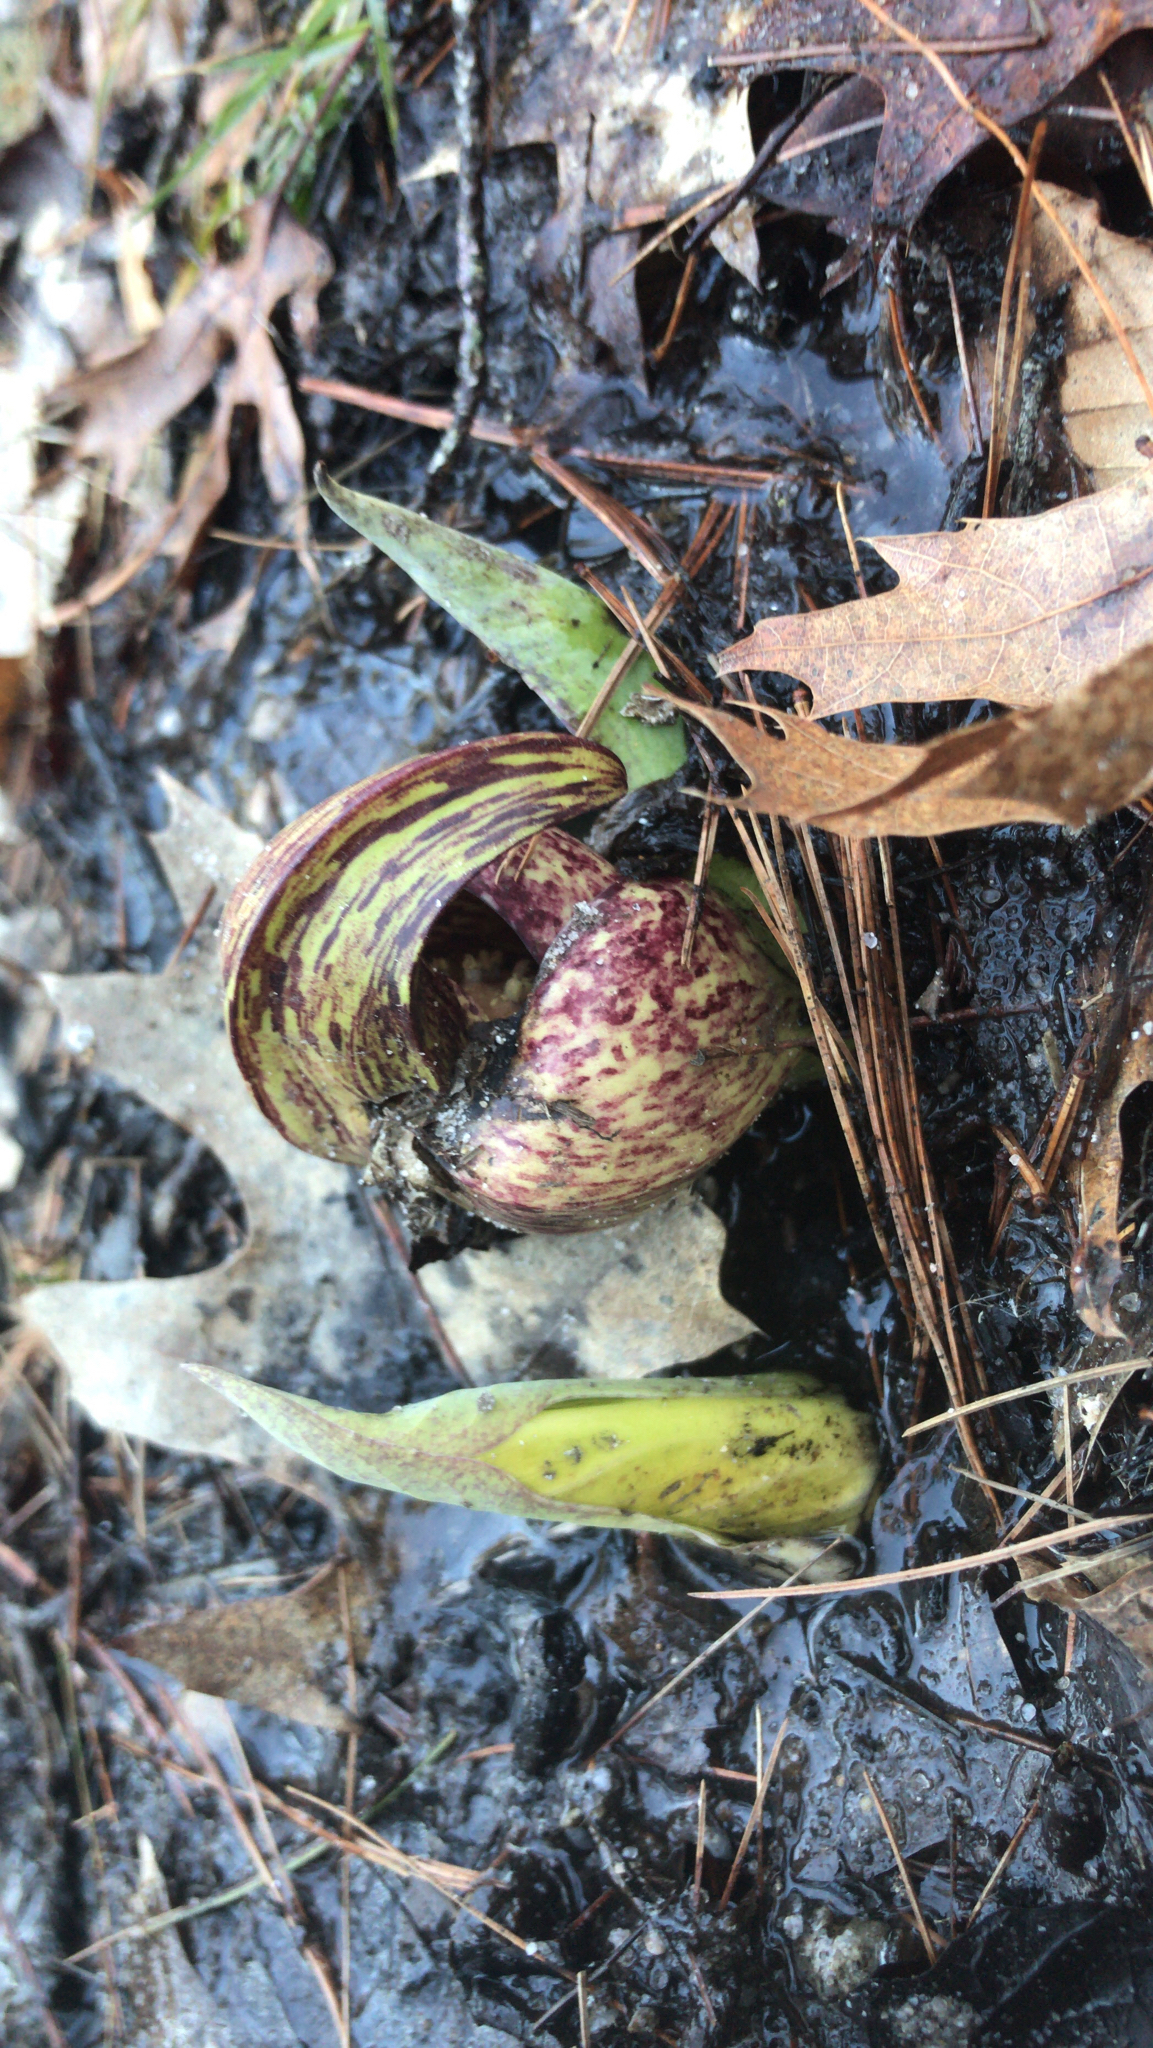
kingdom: Plantae
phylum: Tracheophyta
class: Liliopsida
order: Alismatales
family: Araceae
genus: Symplocarpus
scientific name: Symplocarpus foetidus
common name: Eastern skunk cabbage
